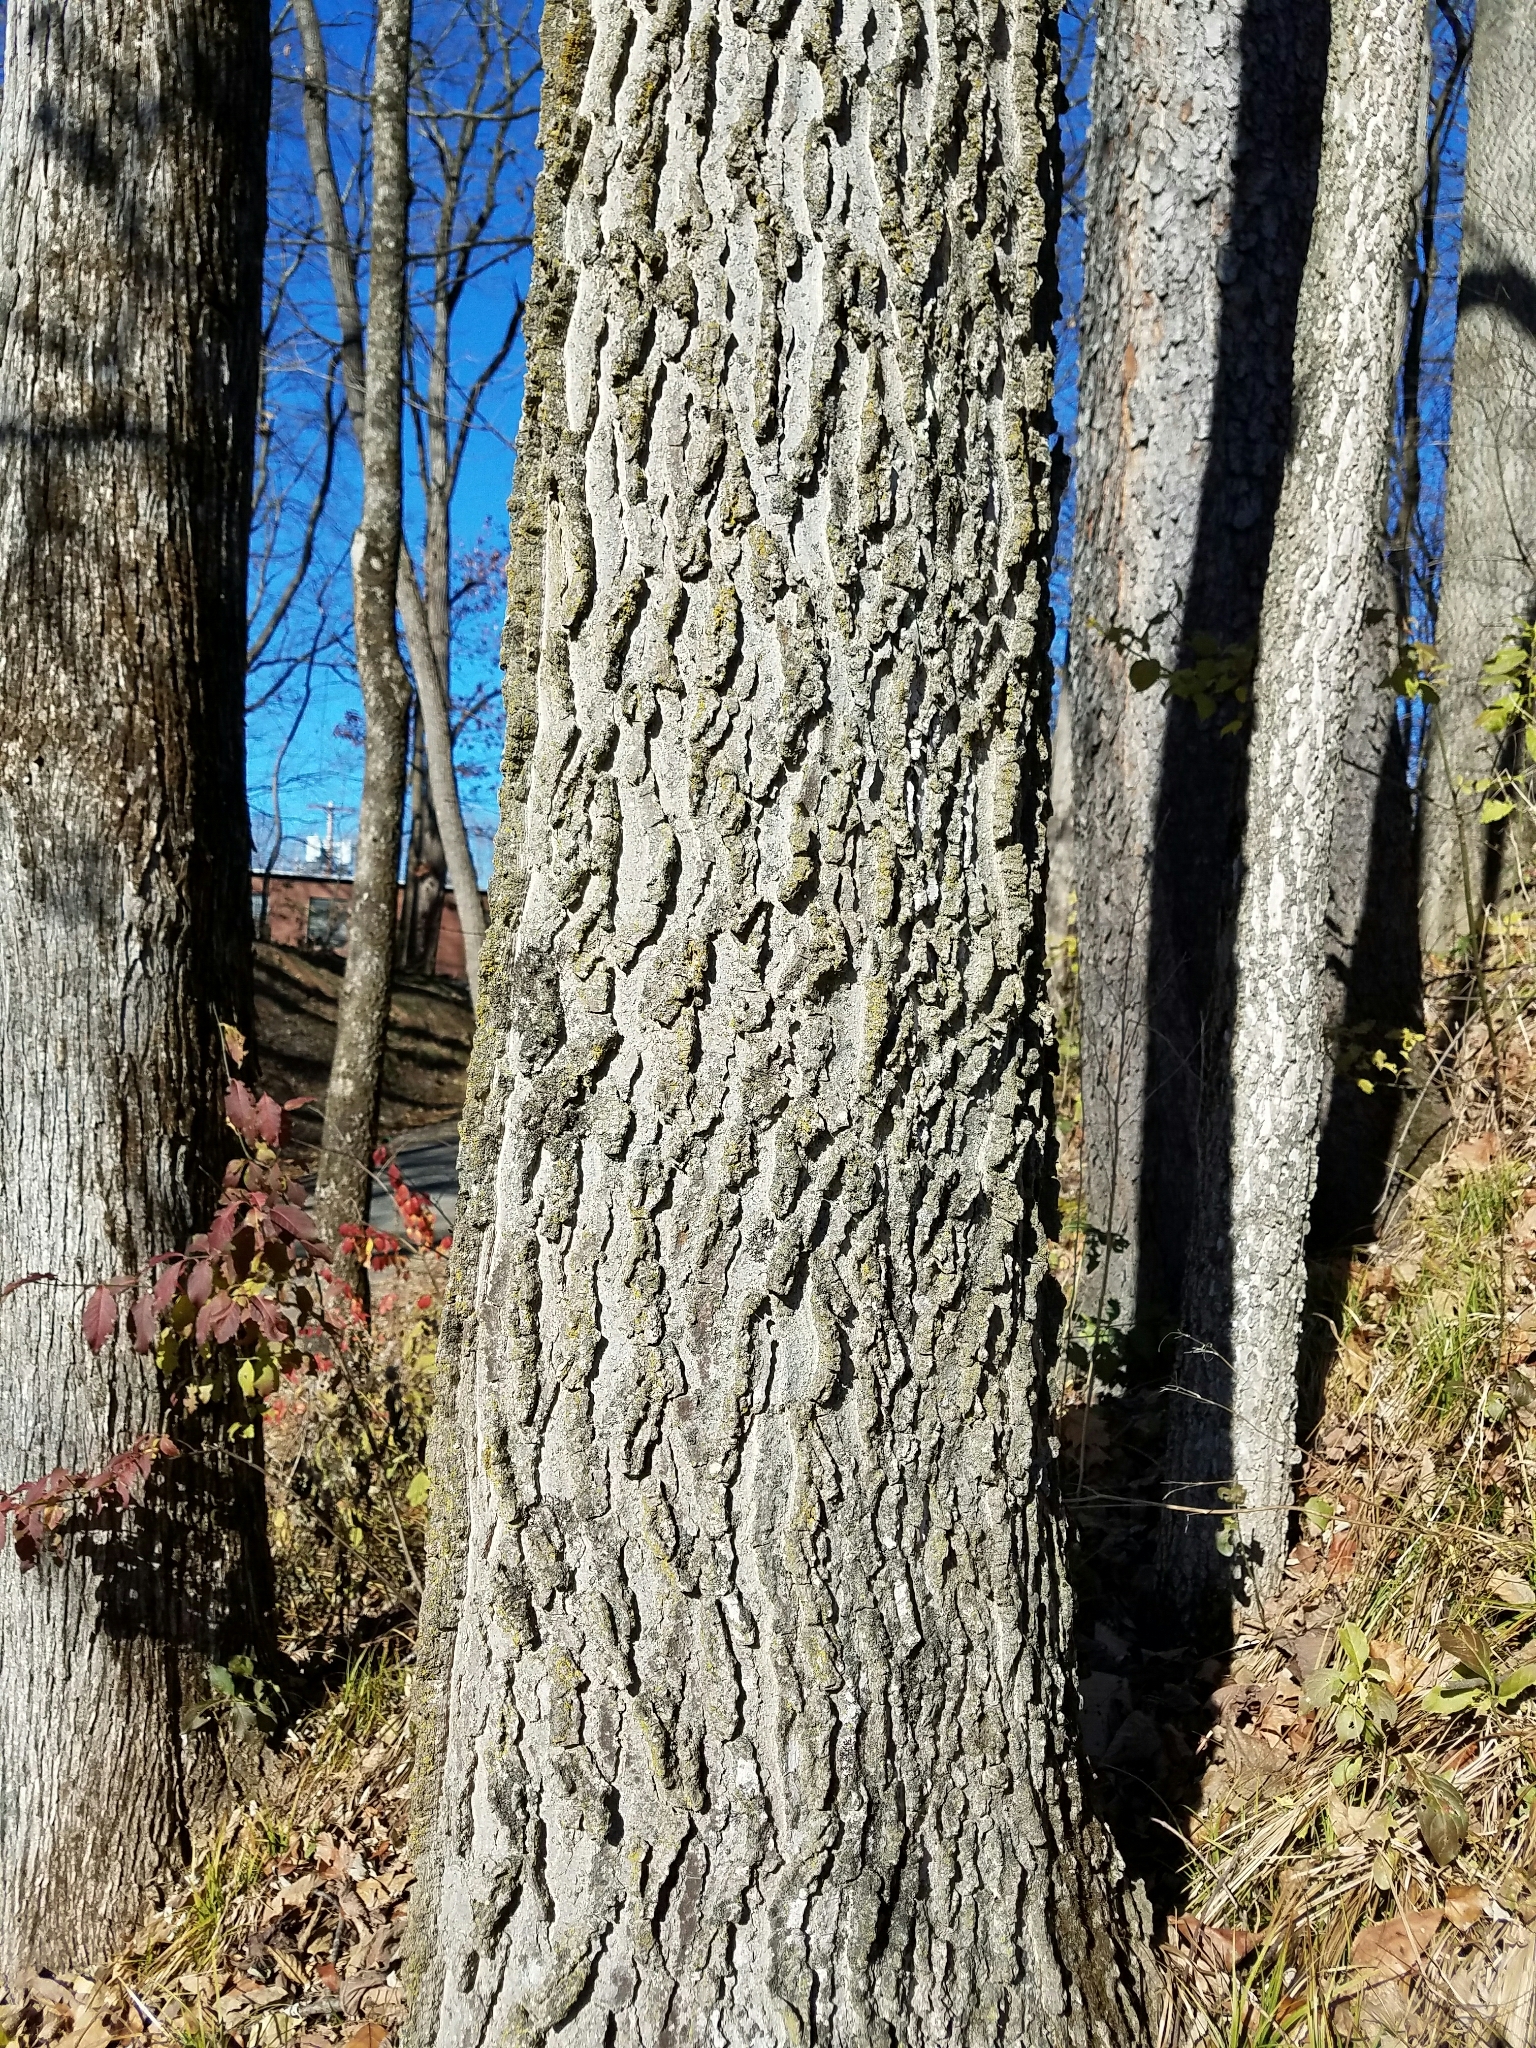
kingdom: Plantae
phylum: Tracheophyta
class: Magnoliopsida
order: Rosales
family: Cannabaceae
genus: Celtis
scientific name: Celtis occidentalis
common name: Common hackberry
